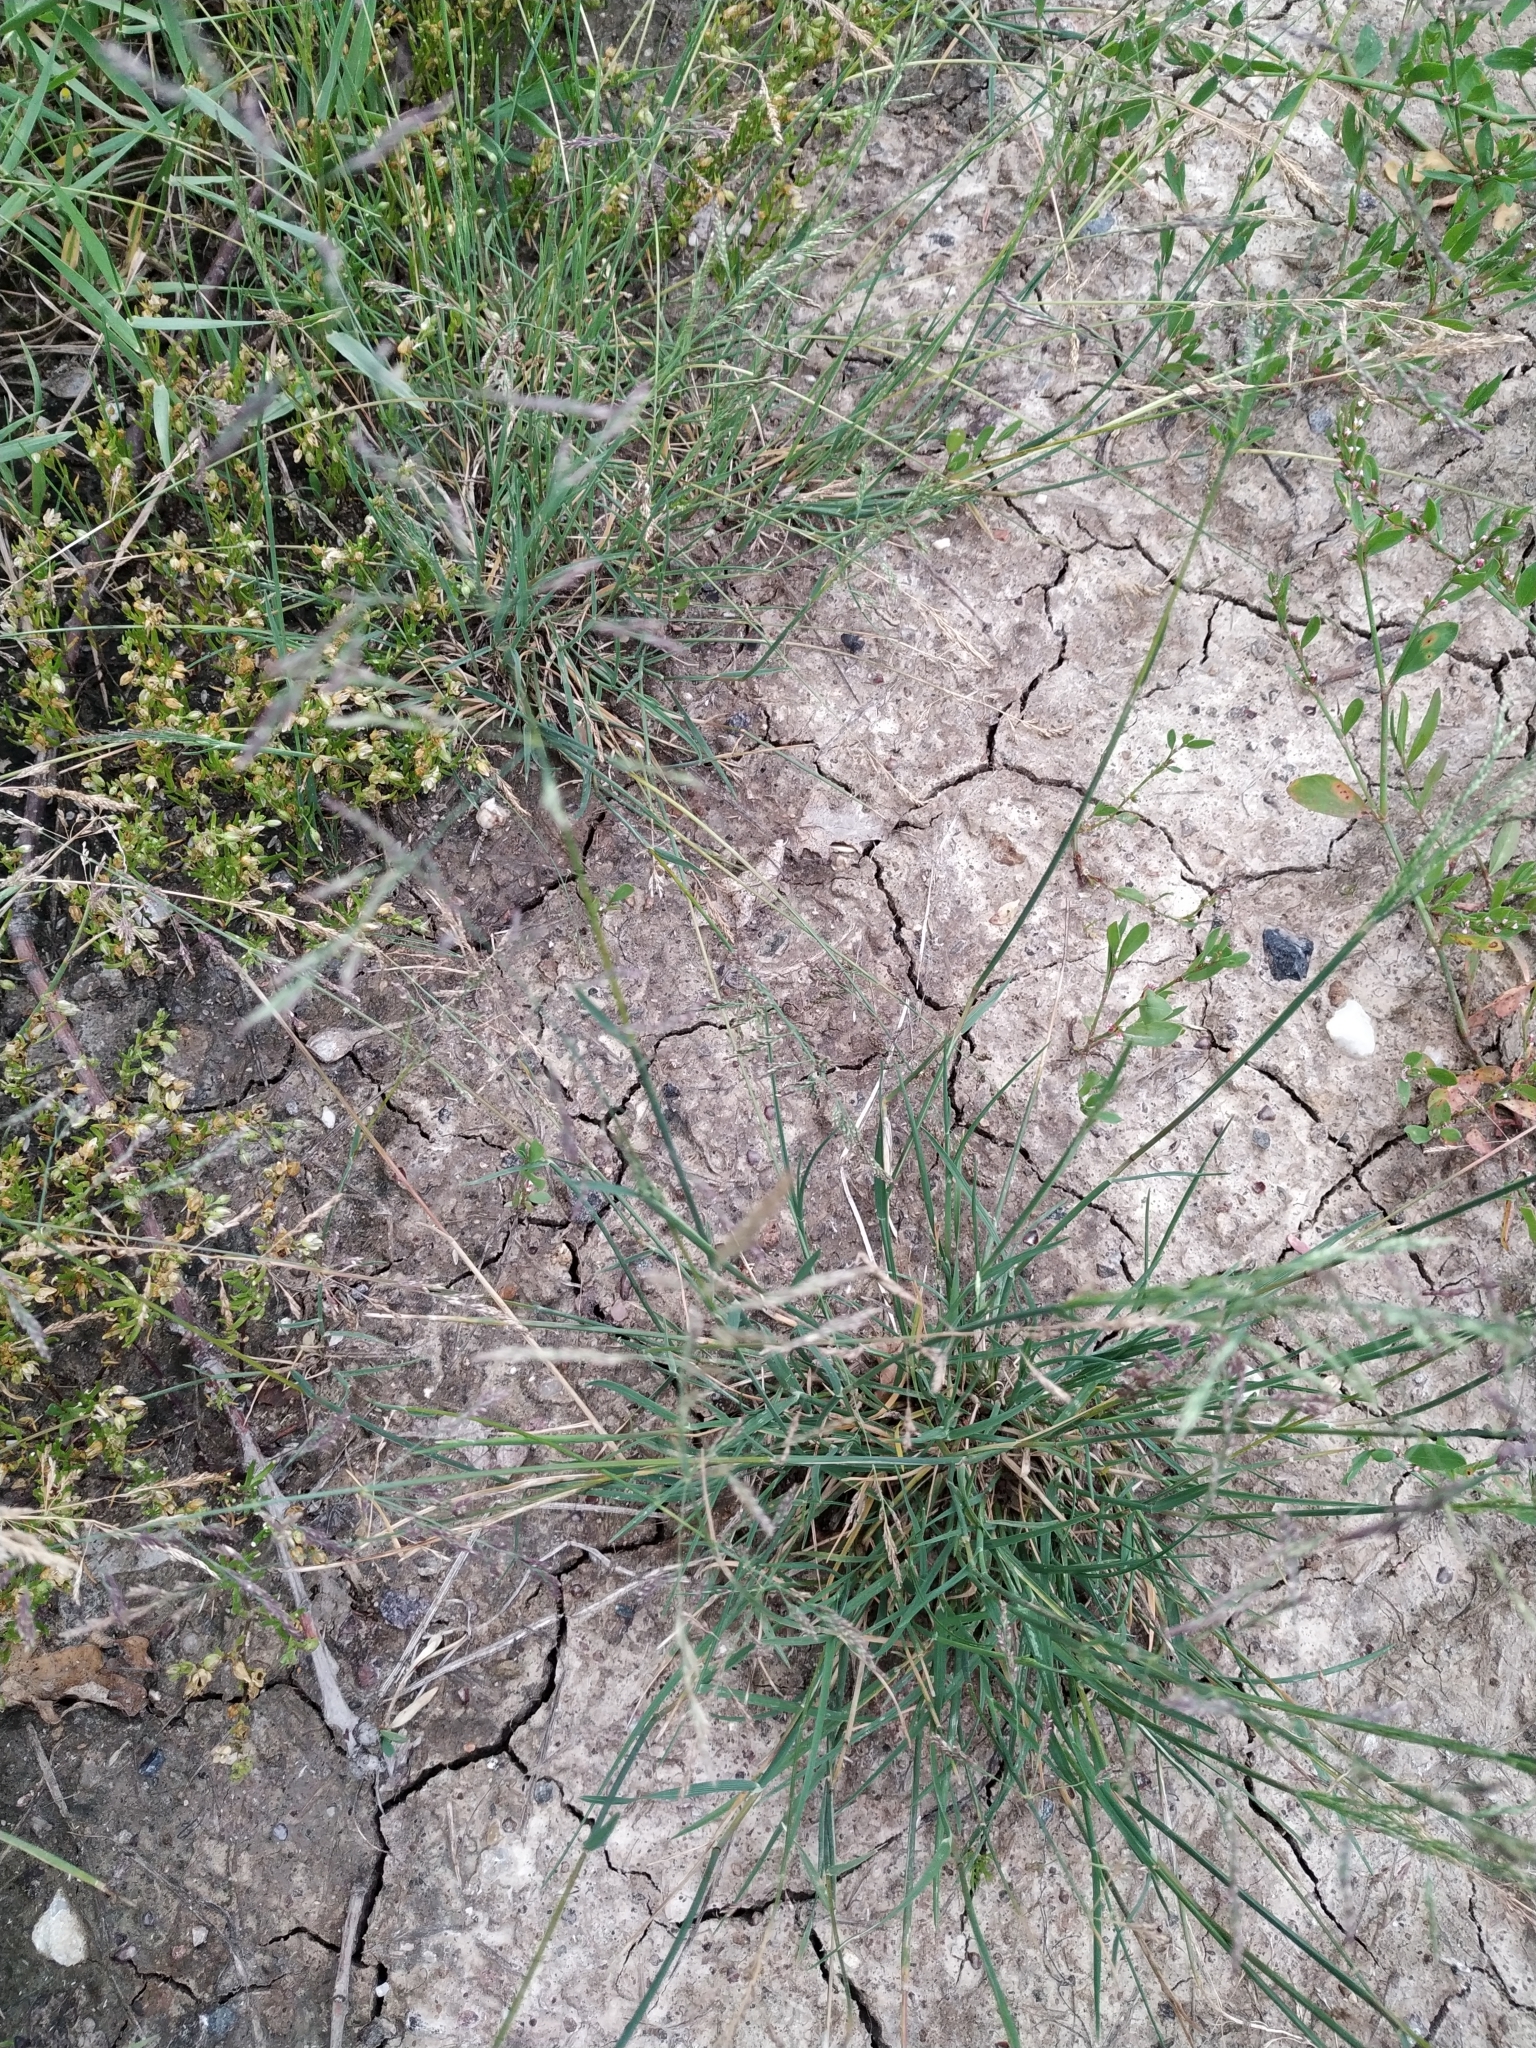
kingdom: Plantae
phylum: Tracheophyta
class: Liliopsida
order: Poales
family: Poaceae
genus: Puccinellia
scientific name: Puccinellia distans
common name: Weeping alkaligrass
